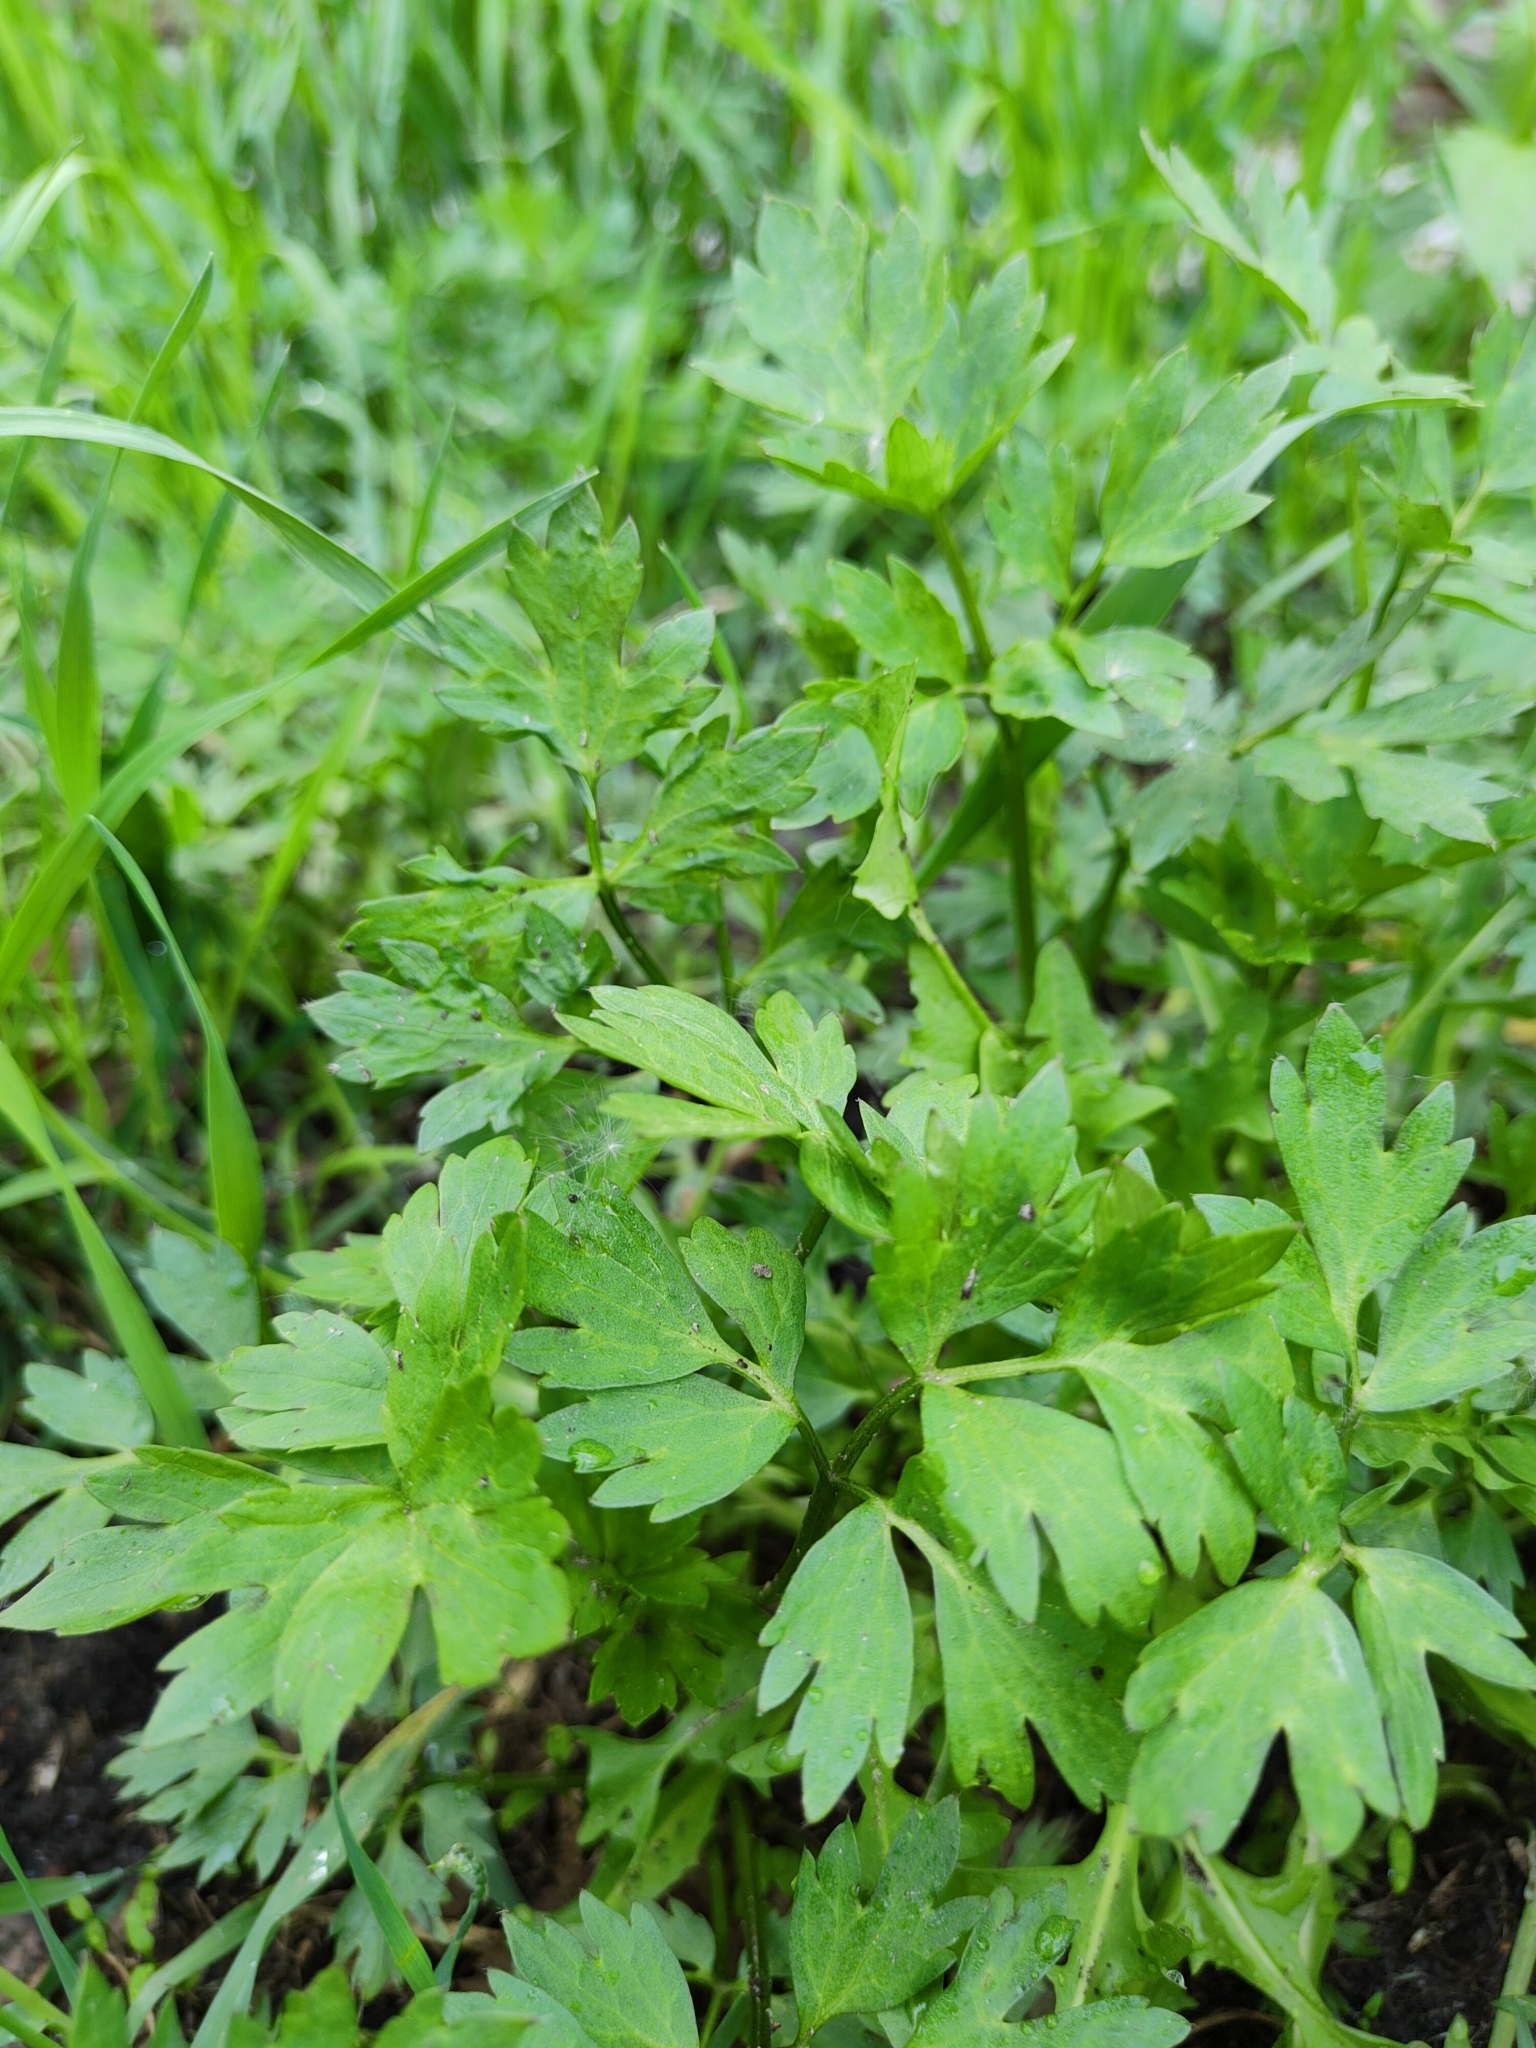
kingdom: Plantae
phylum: Tracheophyta
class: Magnoliopsida
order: Ranunculales
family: Ranunculaceae
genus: Ranunculus
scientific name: Ranunculus repens
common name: Creeping buttercup
